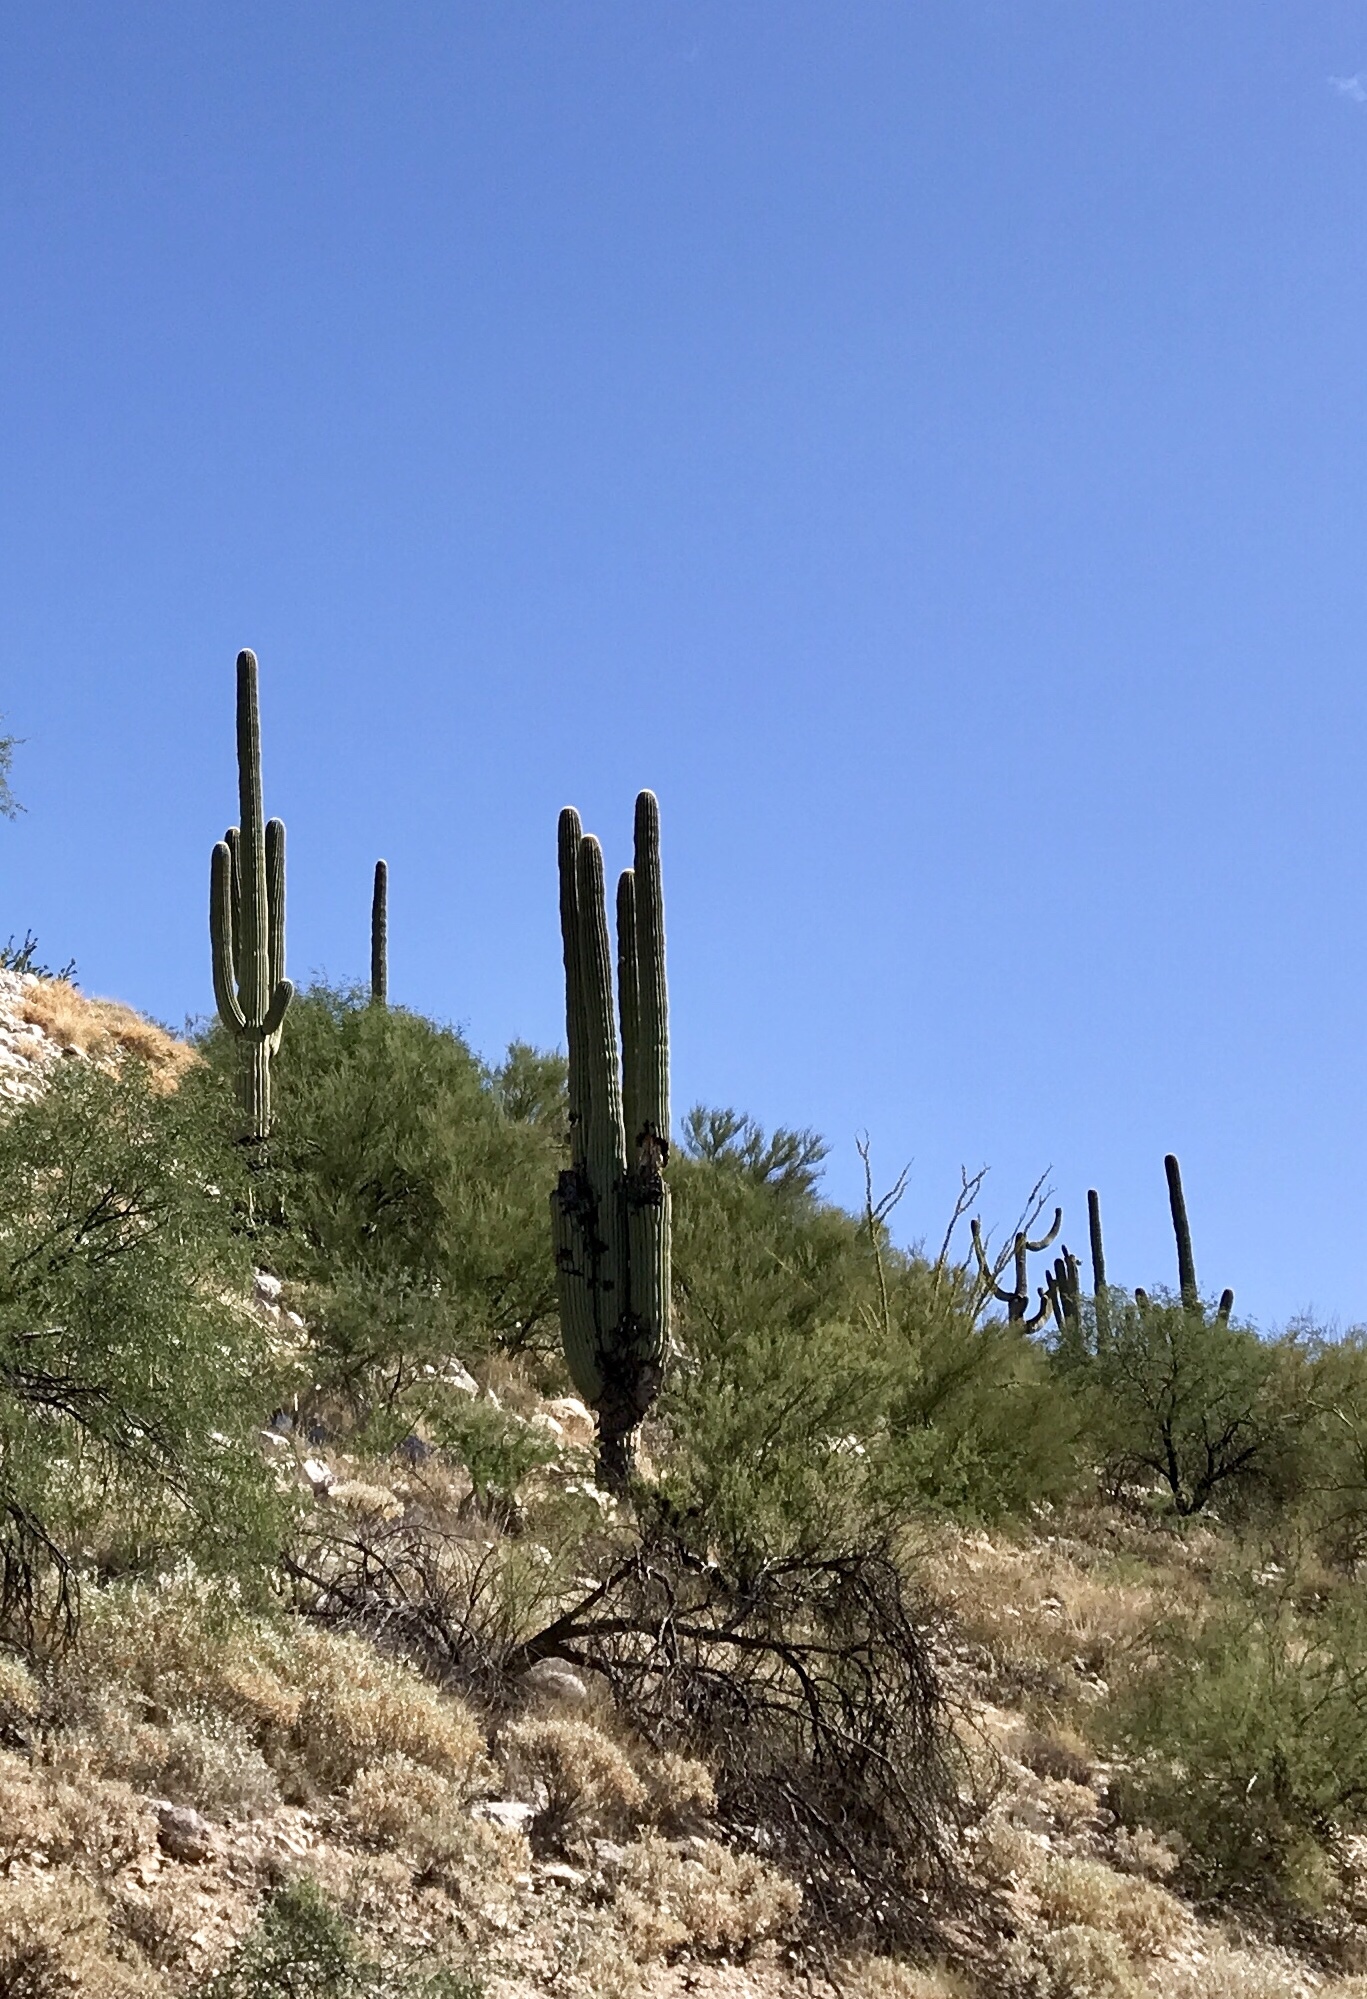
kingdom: Plantae
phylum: Tracheophyta
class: Magnoliopsida
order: Caryophyllales
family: Cactaceae
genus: Carnegiea
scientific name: Carnegiea gigantea
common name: Saguaro
